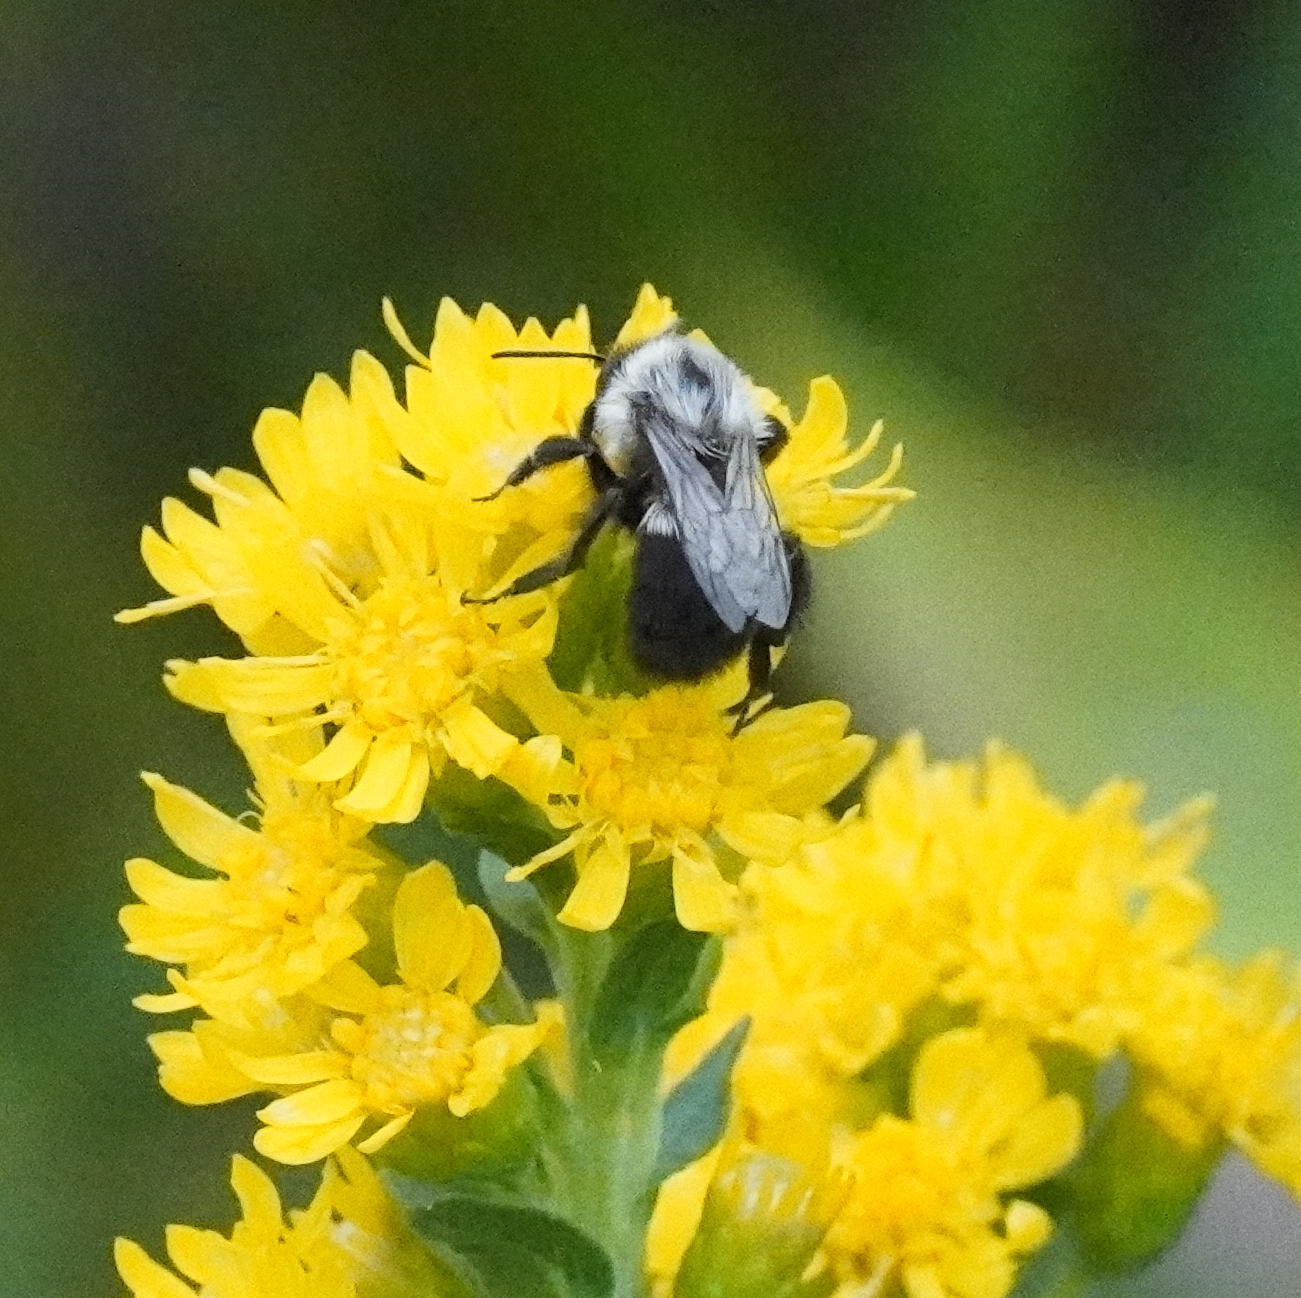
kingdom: Animalia
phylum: Arthropoda
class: Insecta
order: Hymenoptera
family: Apidae
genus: Bombus
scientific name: Bombus impatiens
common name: Common eastern bumble bee
